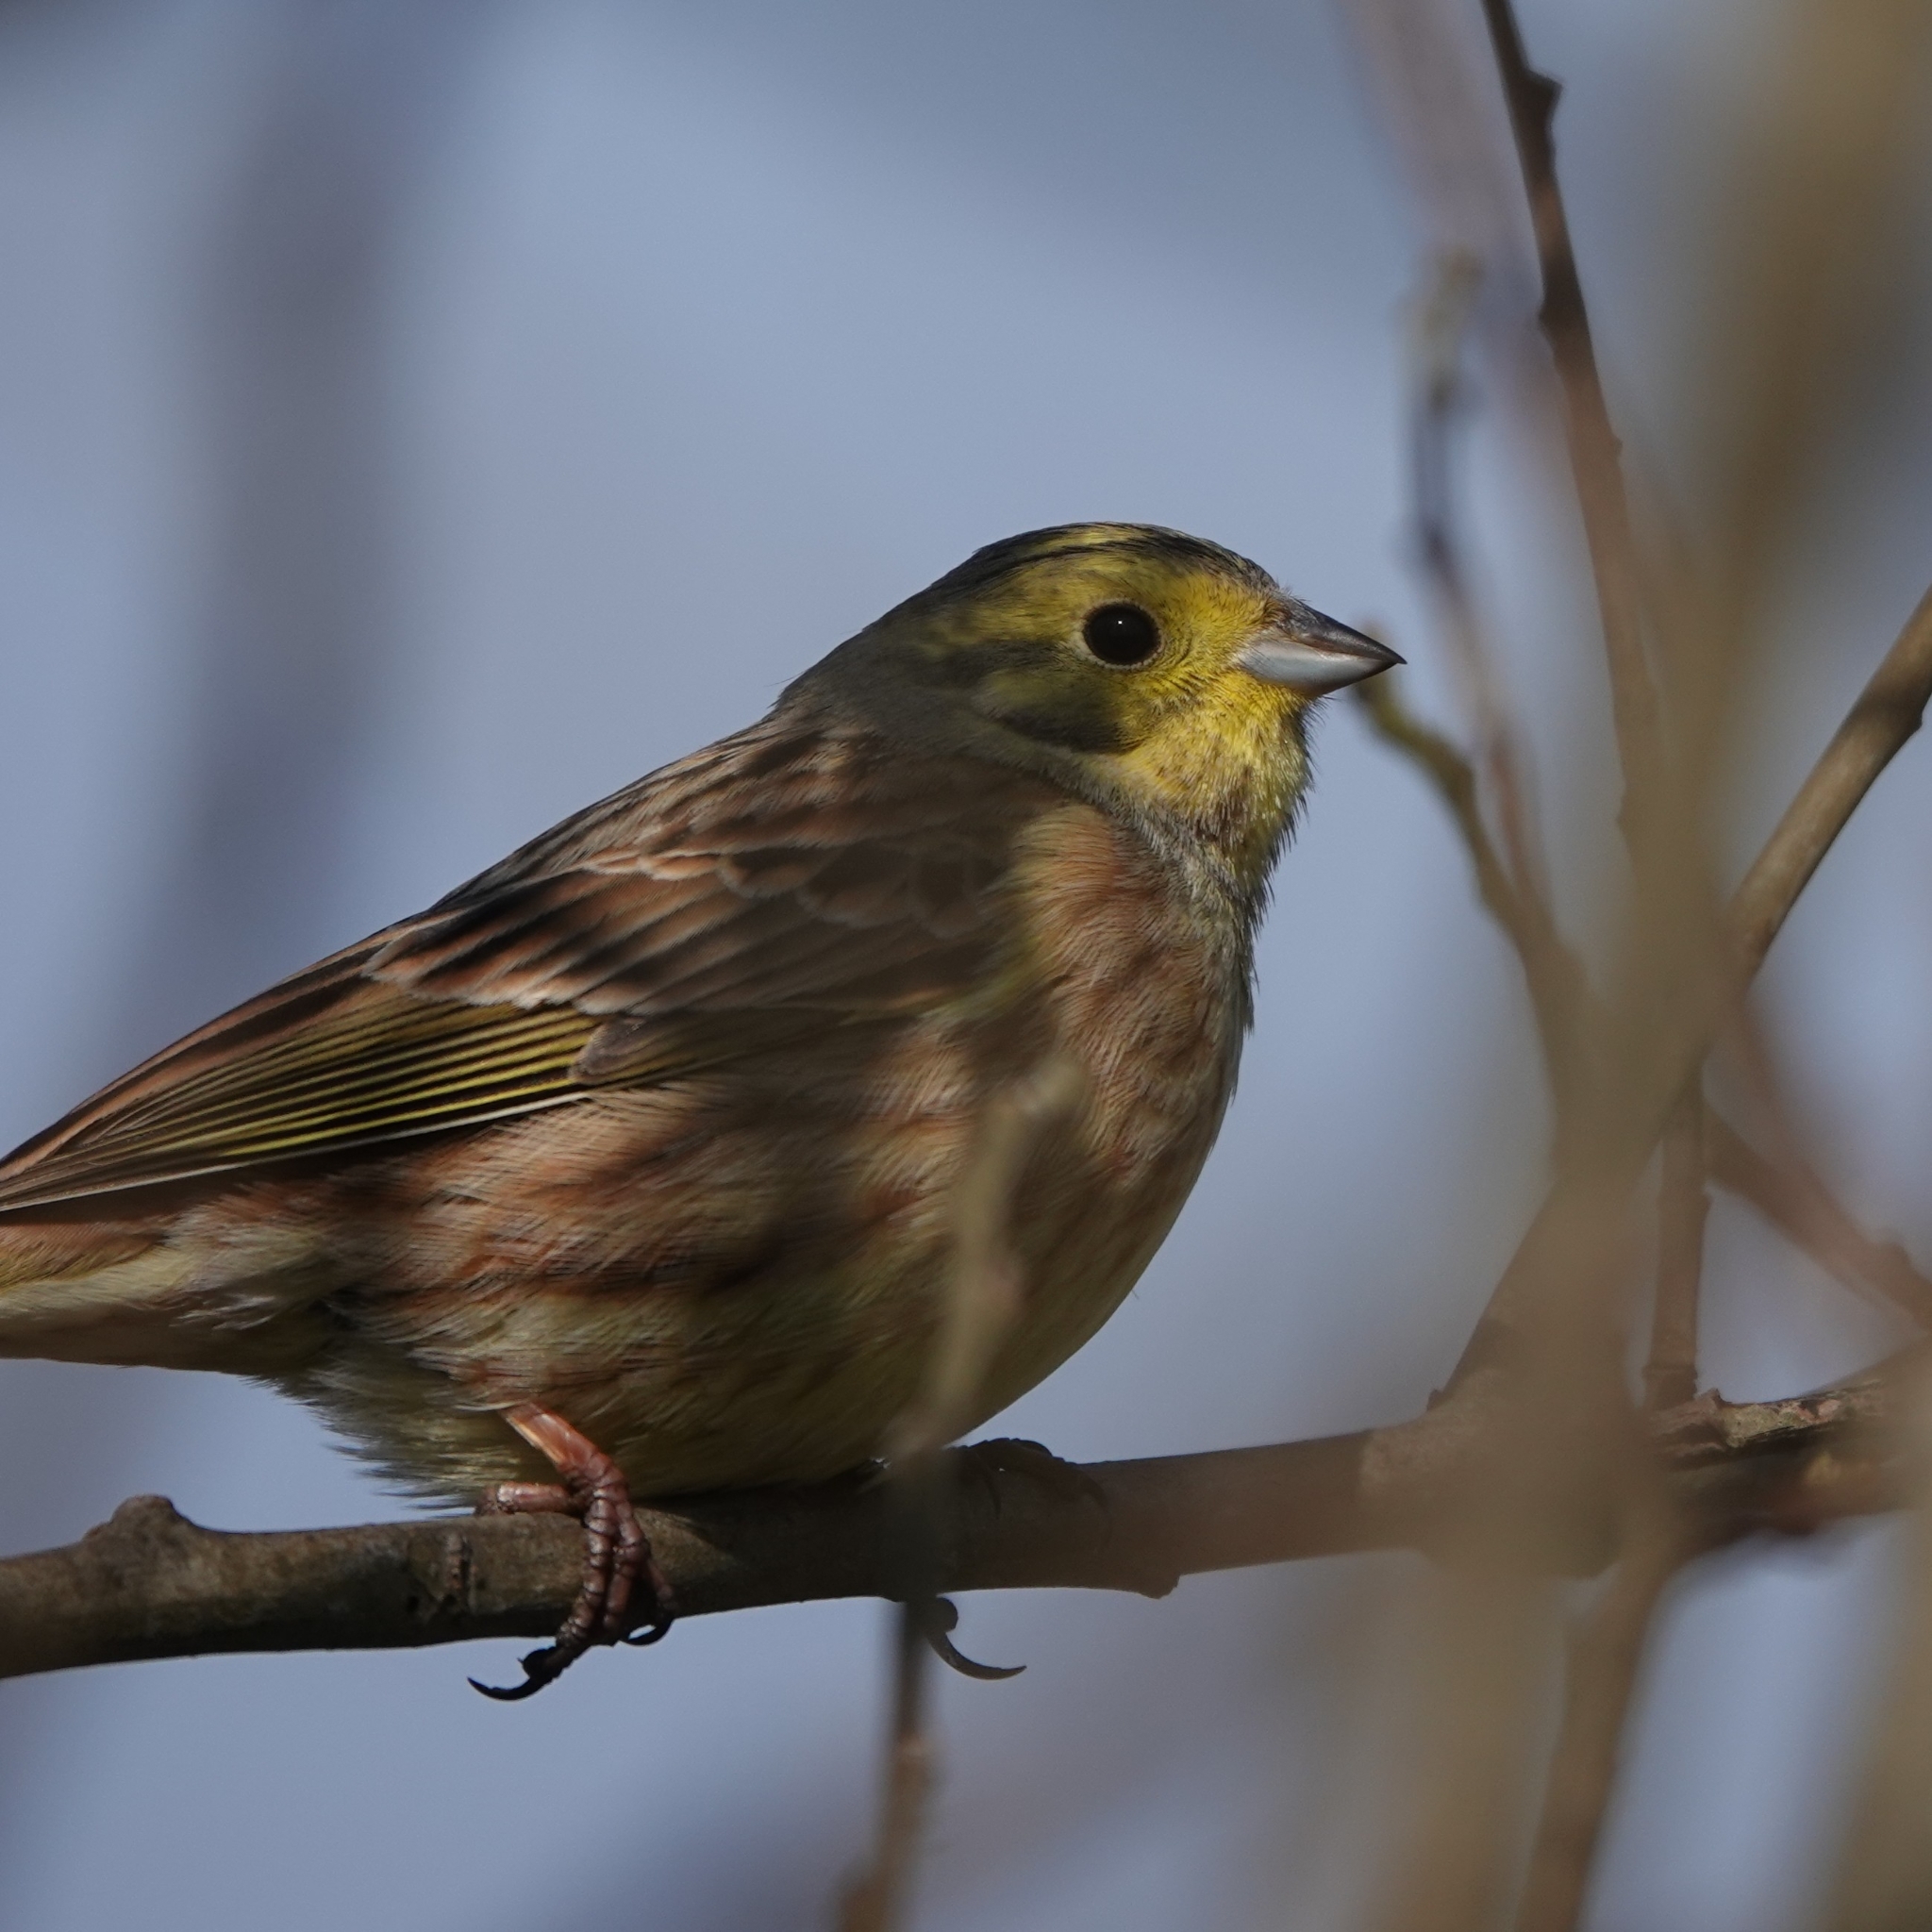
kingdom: Animalia
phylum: Chordata
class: Aves
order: Passeriformes
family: Emberizidae
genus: Emberiza
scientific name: Emberiza citrinella
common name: Yellowhammer
